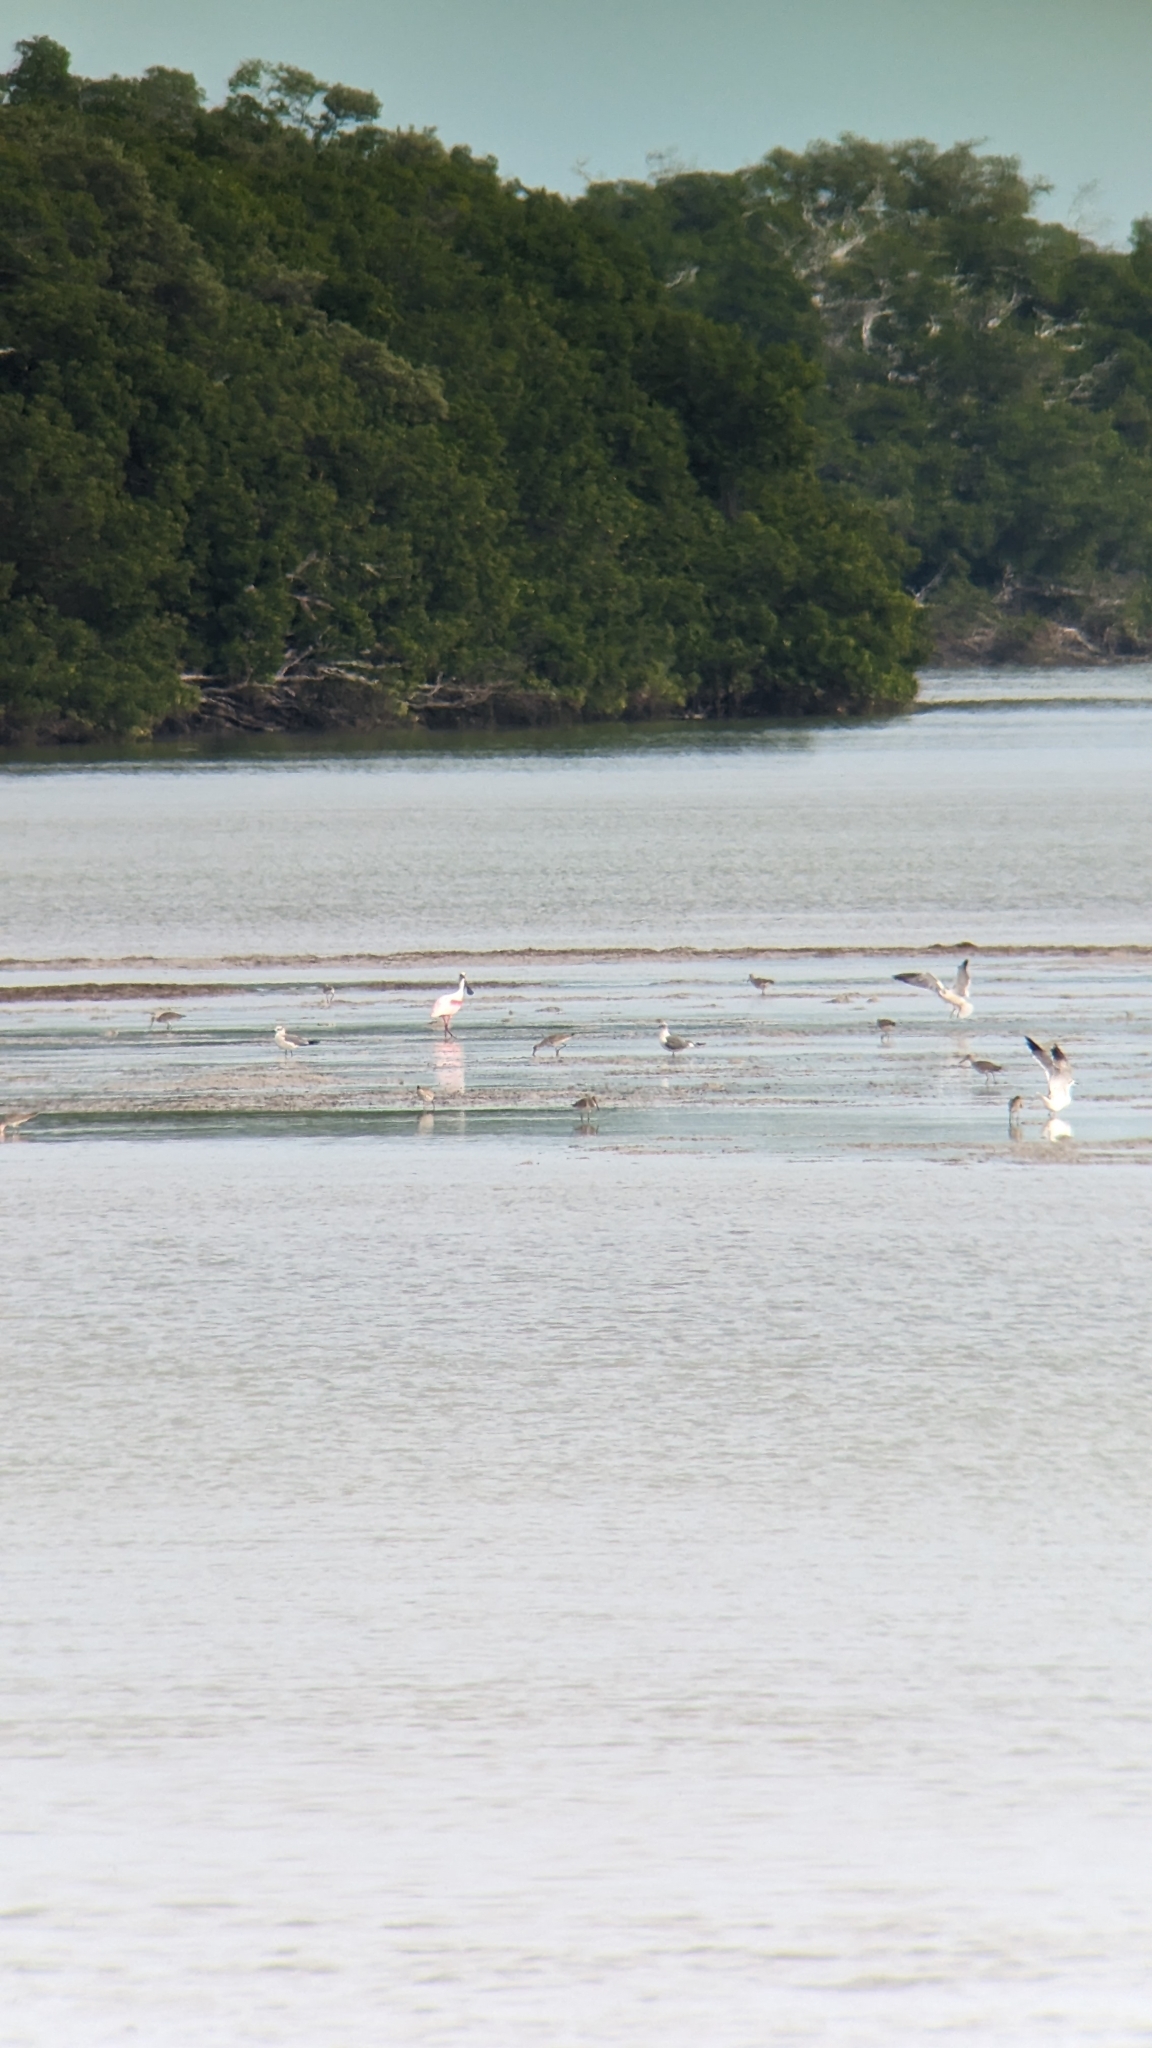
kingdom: Animalia
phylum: Chordata
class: Aves
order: Pelecaniformes
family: Threskiornithidae
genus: Platalea
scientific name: Platalea ajaja
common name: Roseate spoonbill
